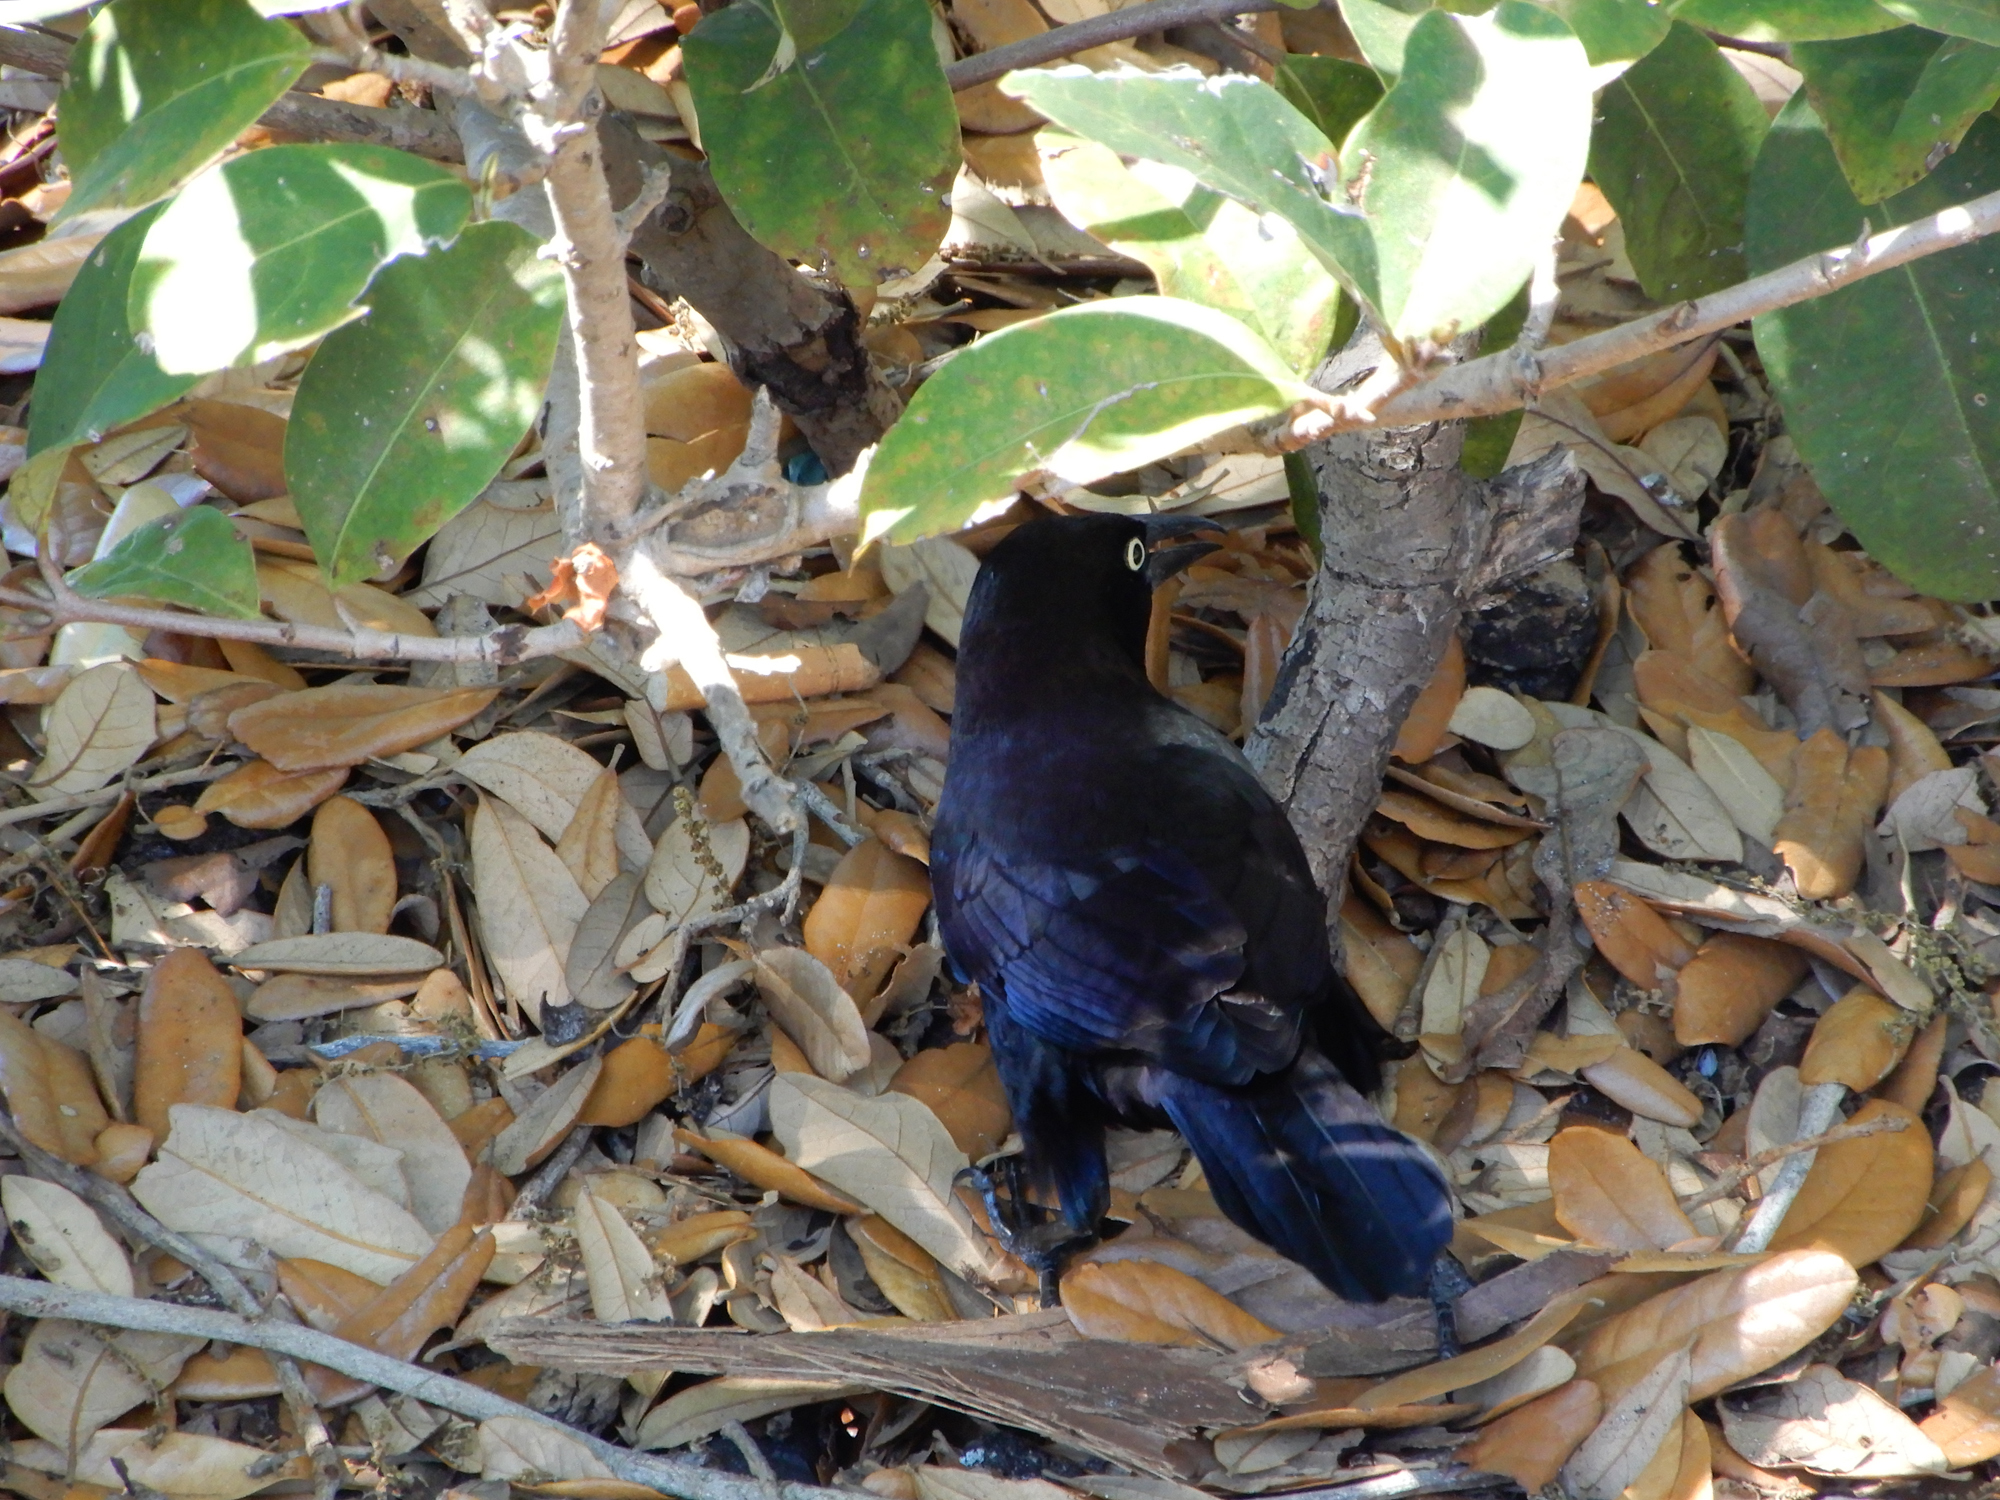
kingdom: Animalia
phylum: Chordata
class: Aves
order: Passeriformes
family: Icteridae
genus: Quiscalus
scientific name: Quiscalus quiscula
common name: Common grackle
